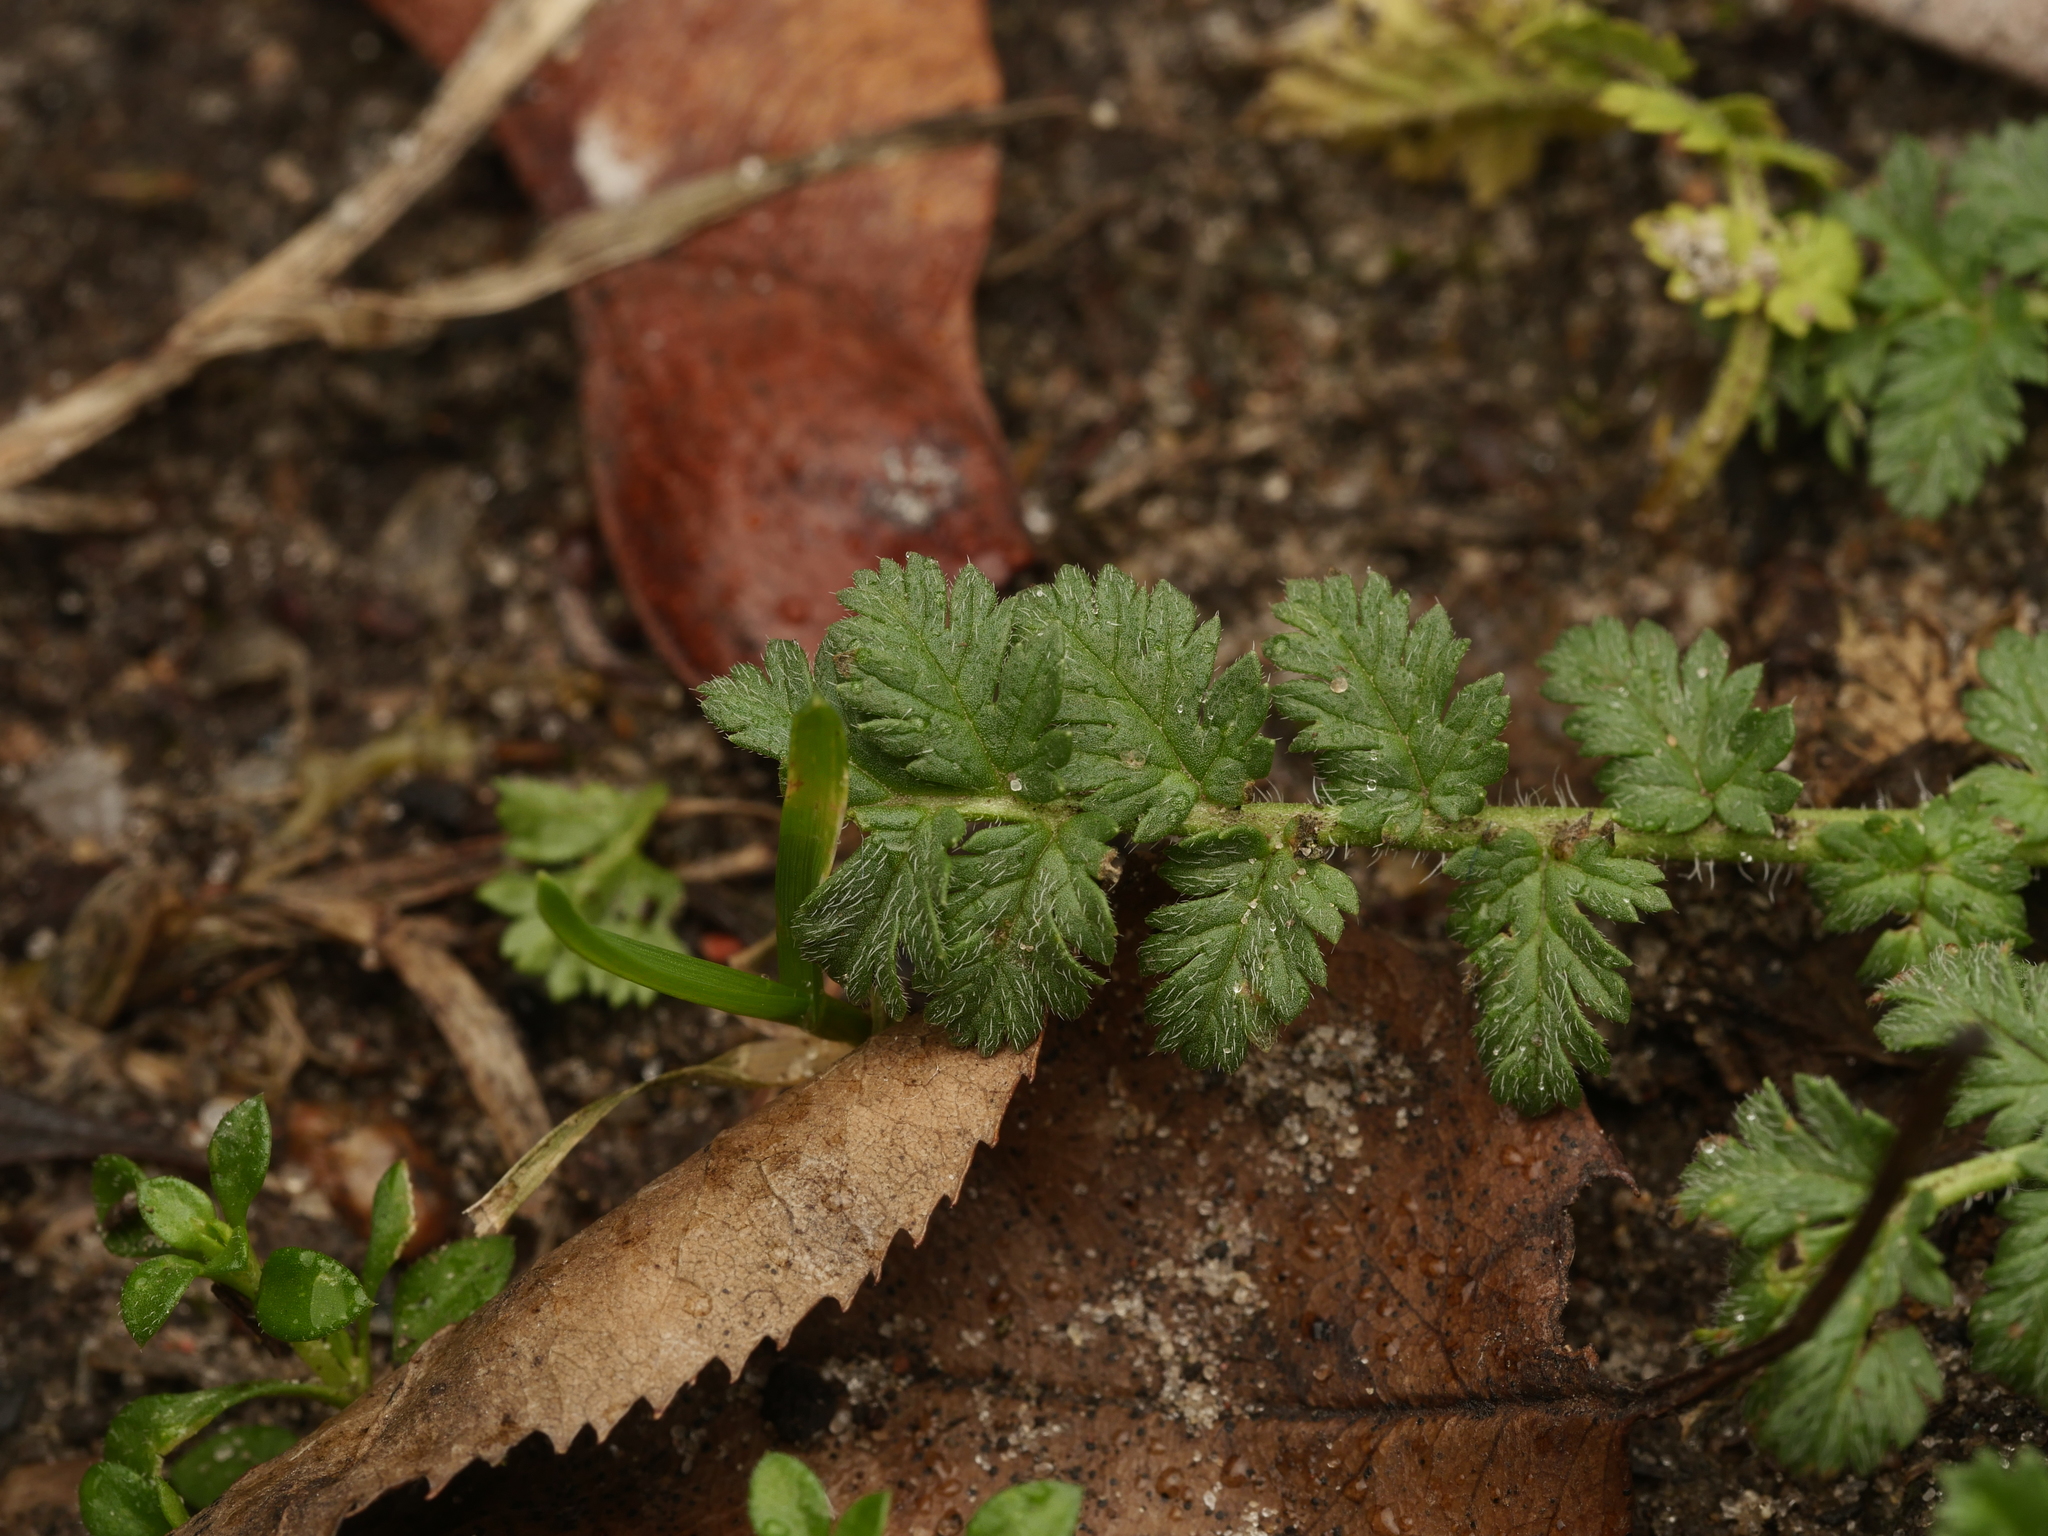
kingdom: Plantae
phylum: Tracheophyta
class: Magnoliopsida
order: Geraniales
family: Geraniaceae
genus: Erodium
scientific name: Erodium cicutarium
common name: Common stork's-bill
